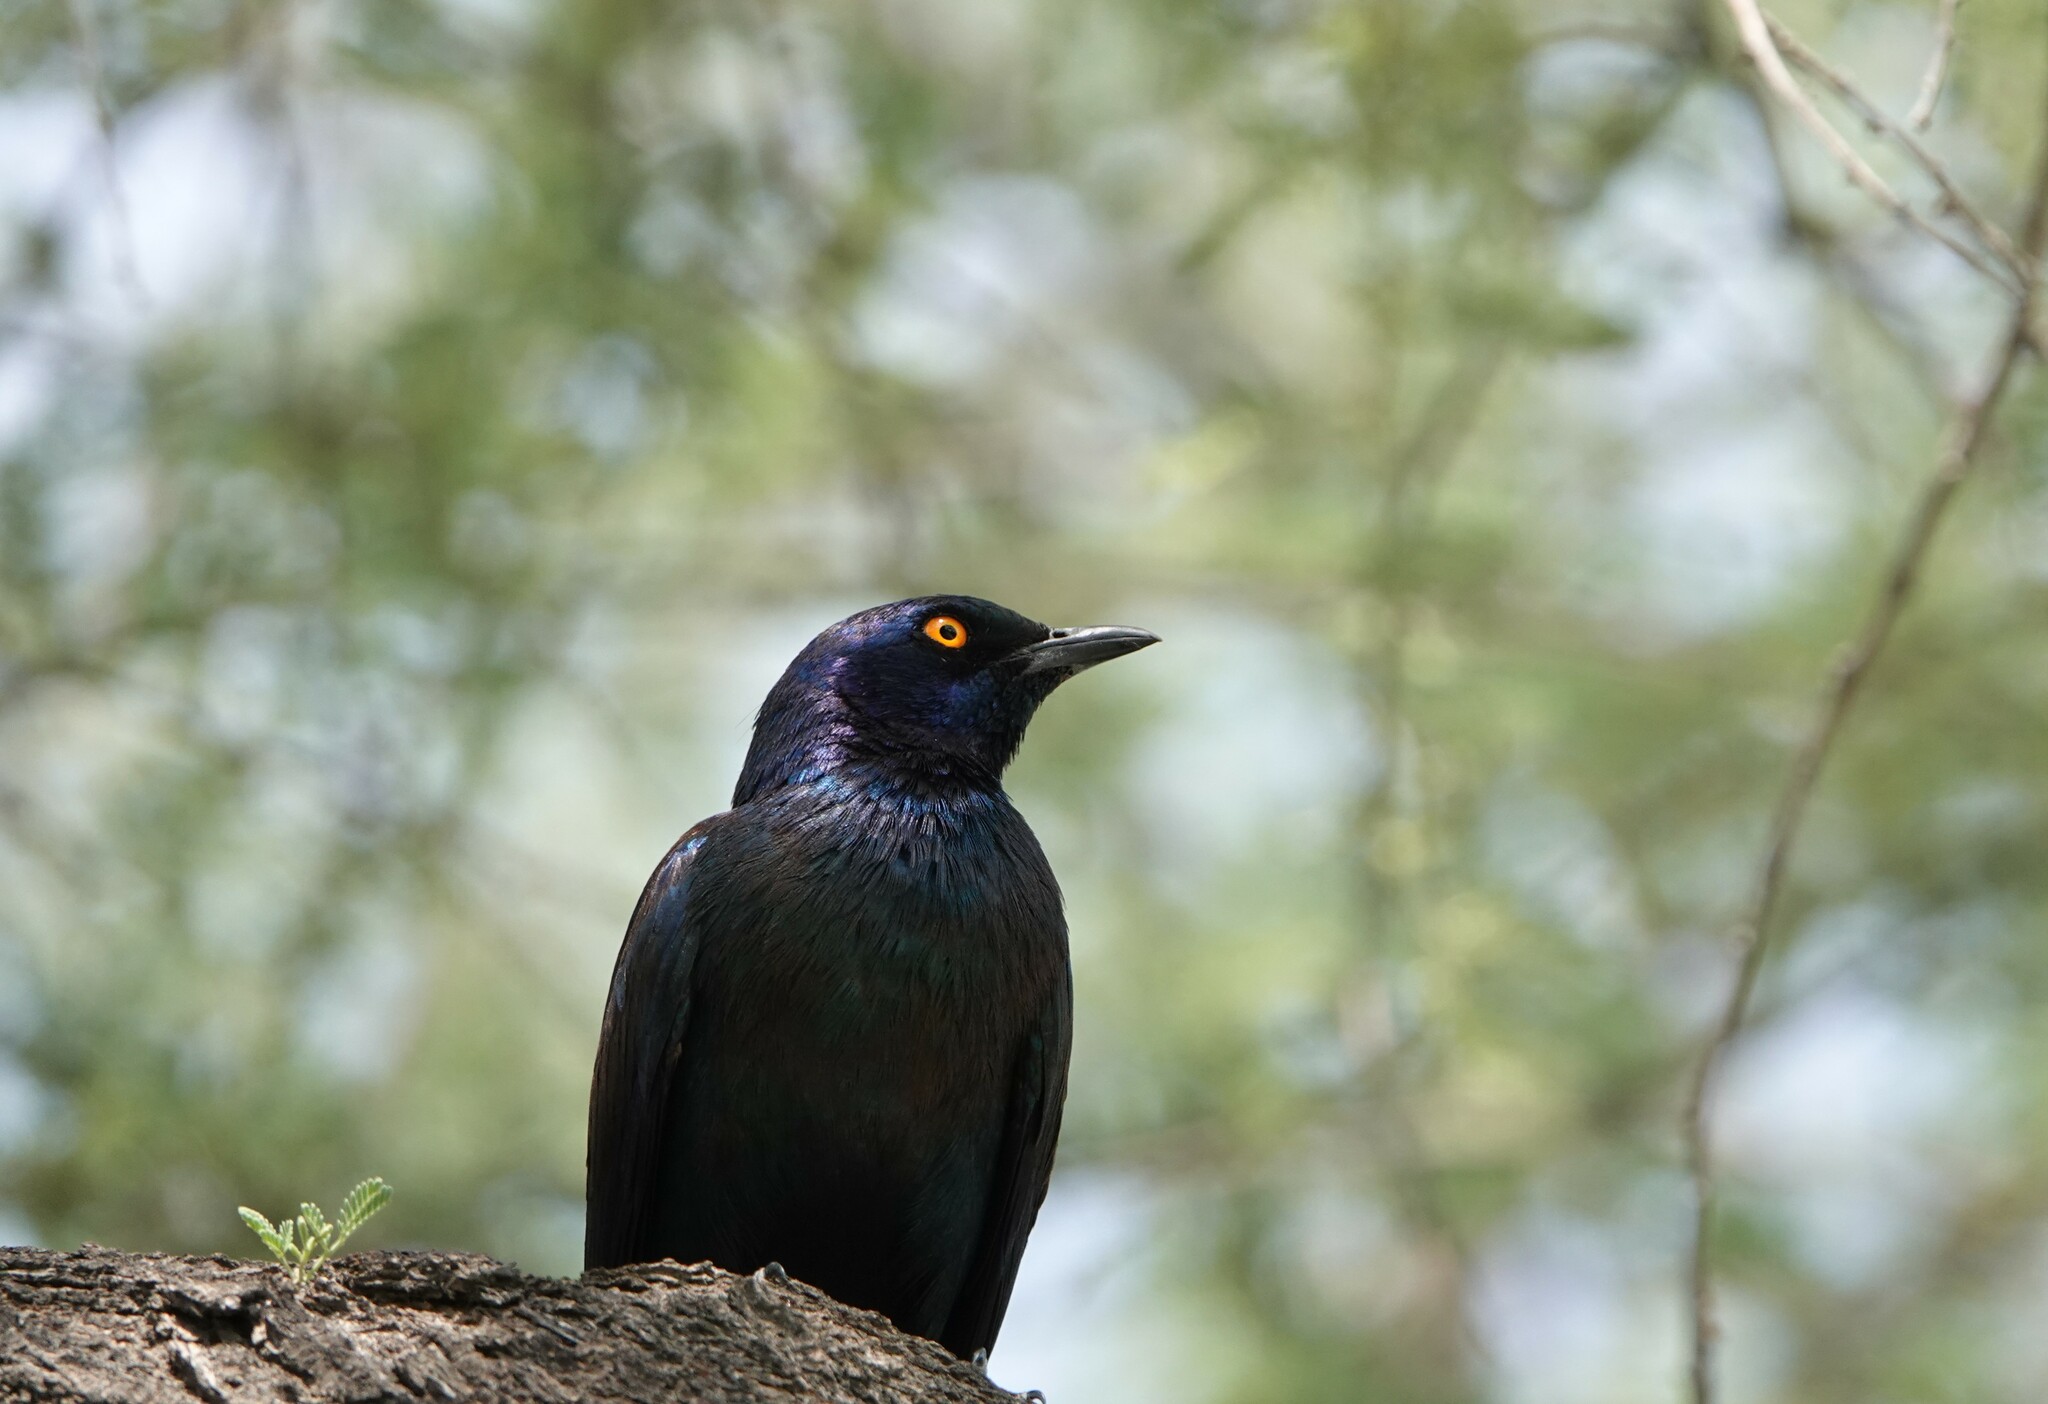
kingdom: Animalia
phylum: Chordata
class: Aves
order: Passeriformes
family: Sturnidae
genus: Lamprotornis
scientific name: Lamprotornis nitens
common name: Cape starling
